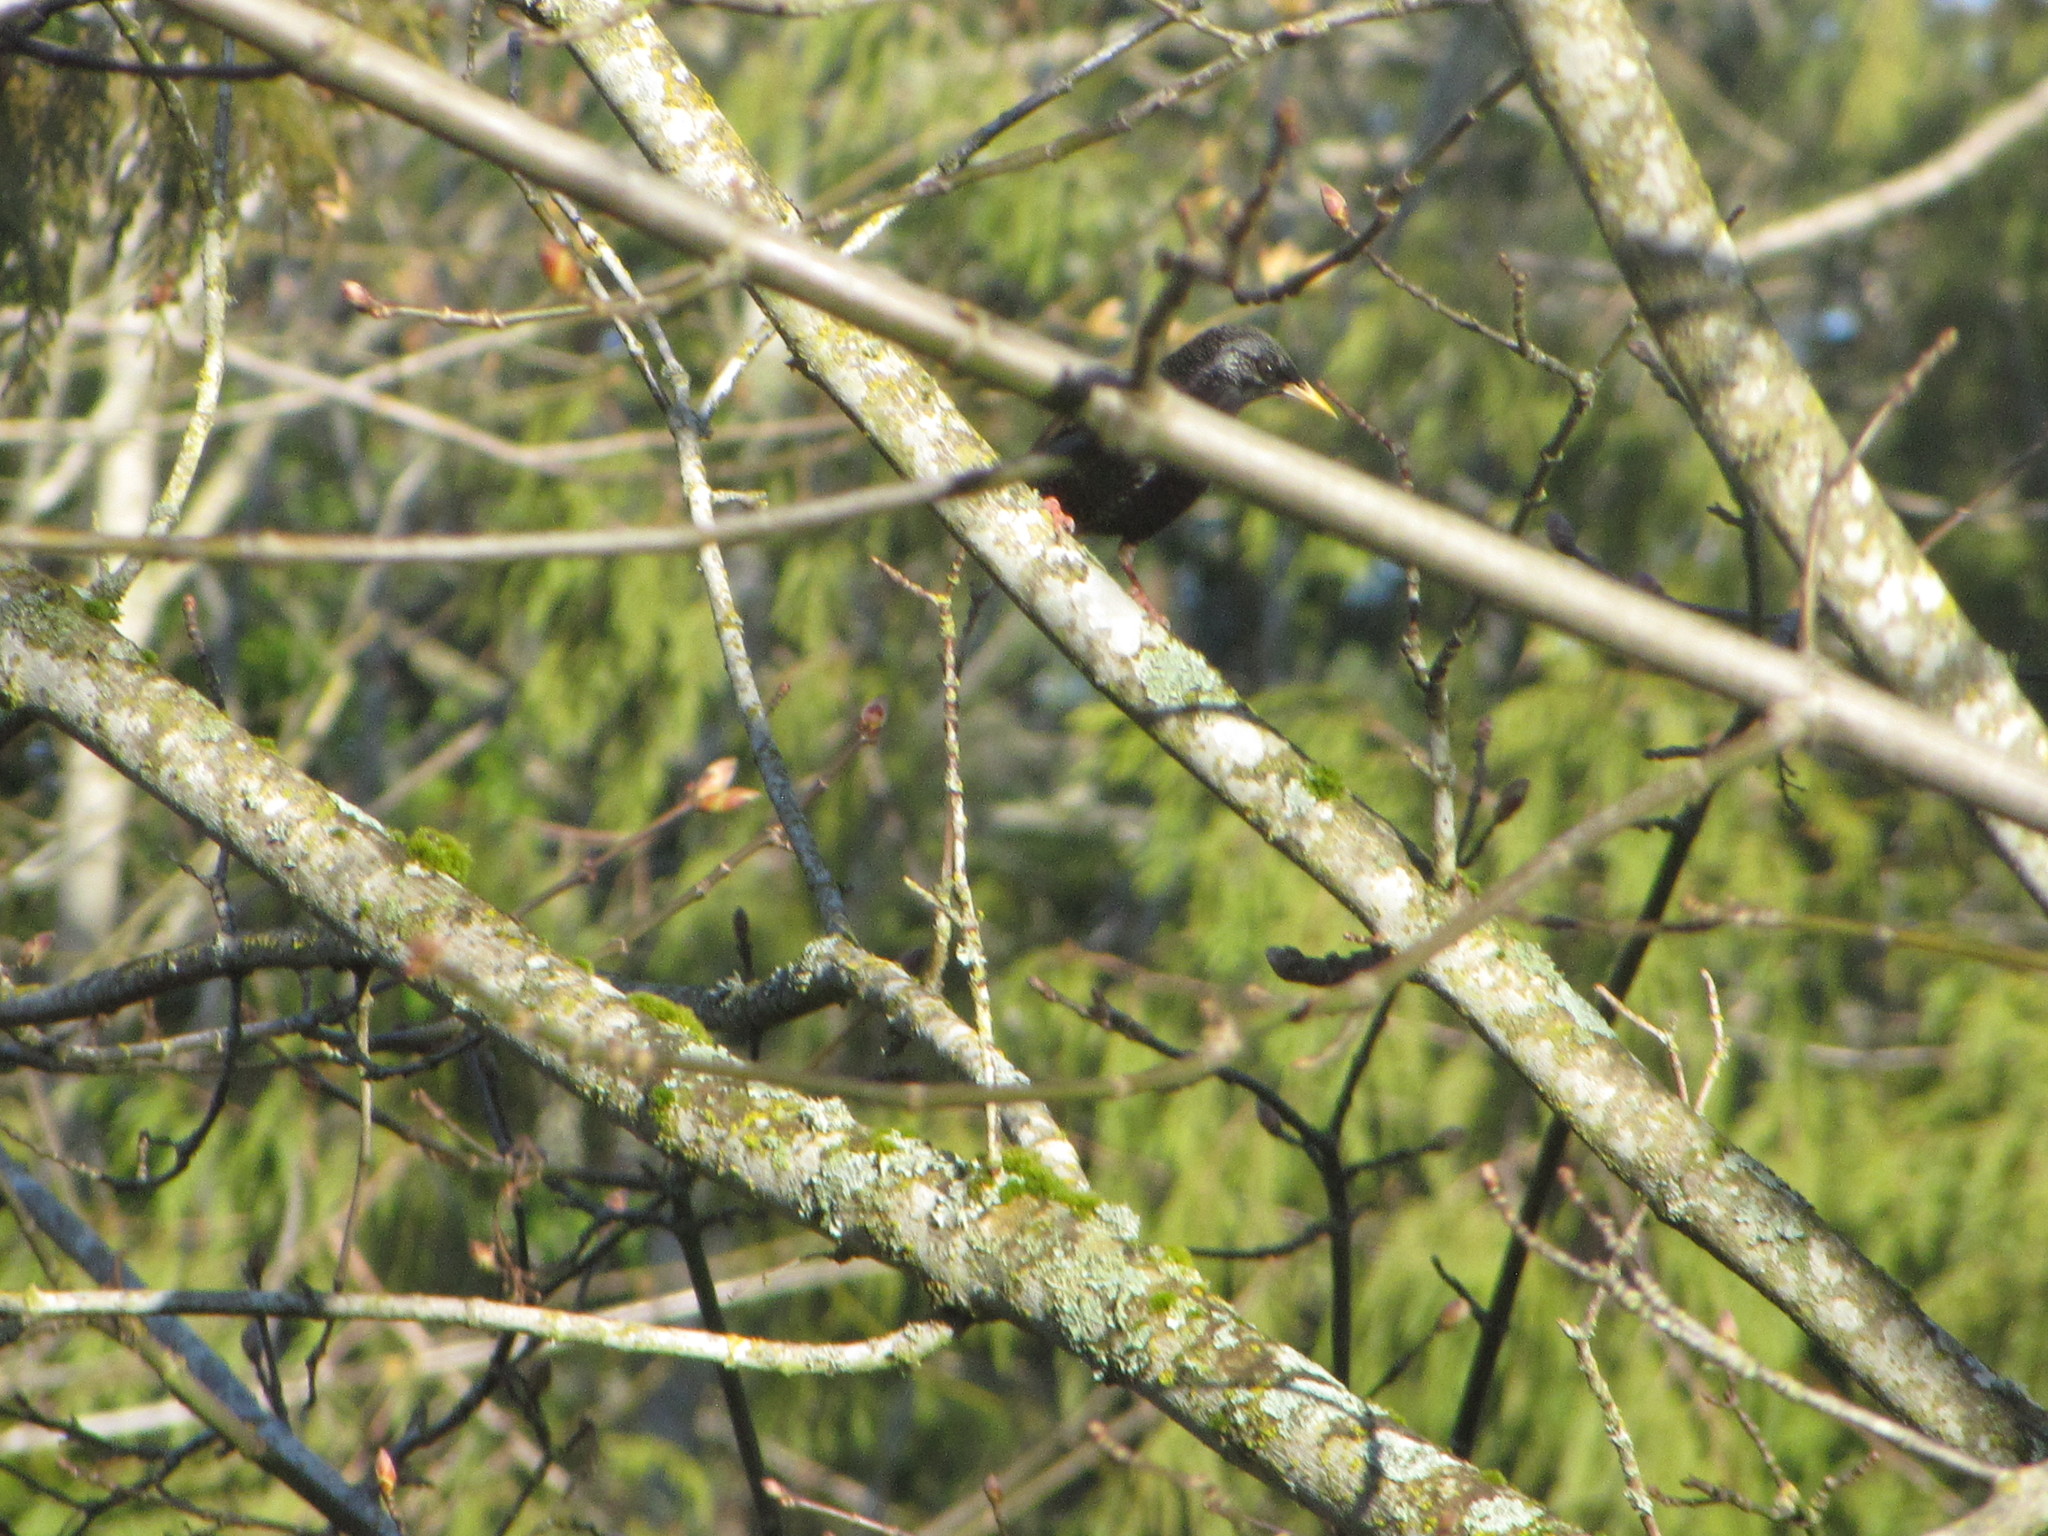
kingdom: Animalia
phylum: Chordata
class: Aves
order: Passeriformes
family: Sturnidae
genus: Sturnus
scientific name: Sturnus vulgaris
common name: Common starling
